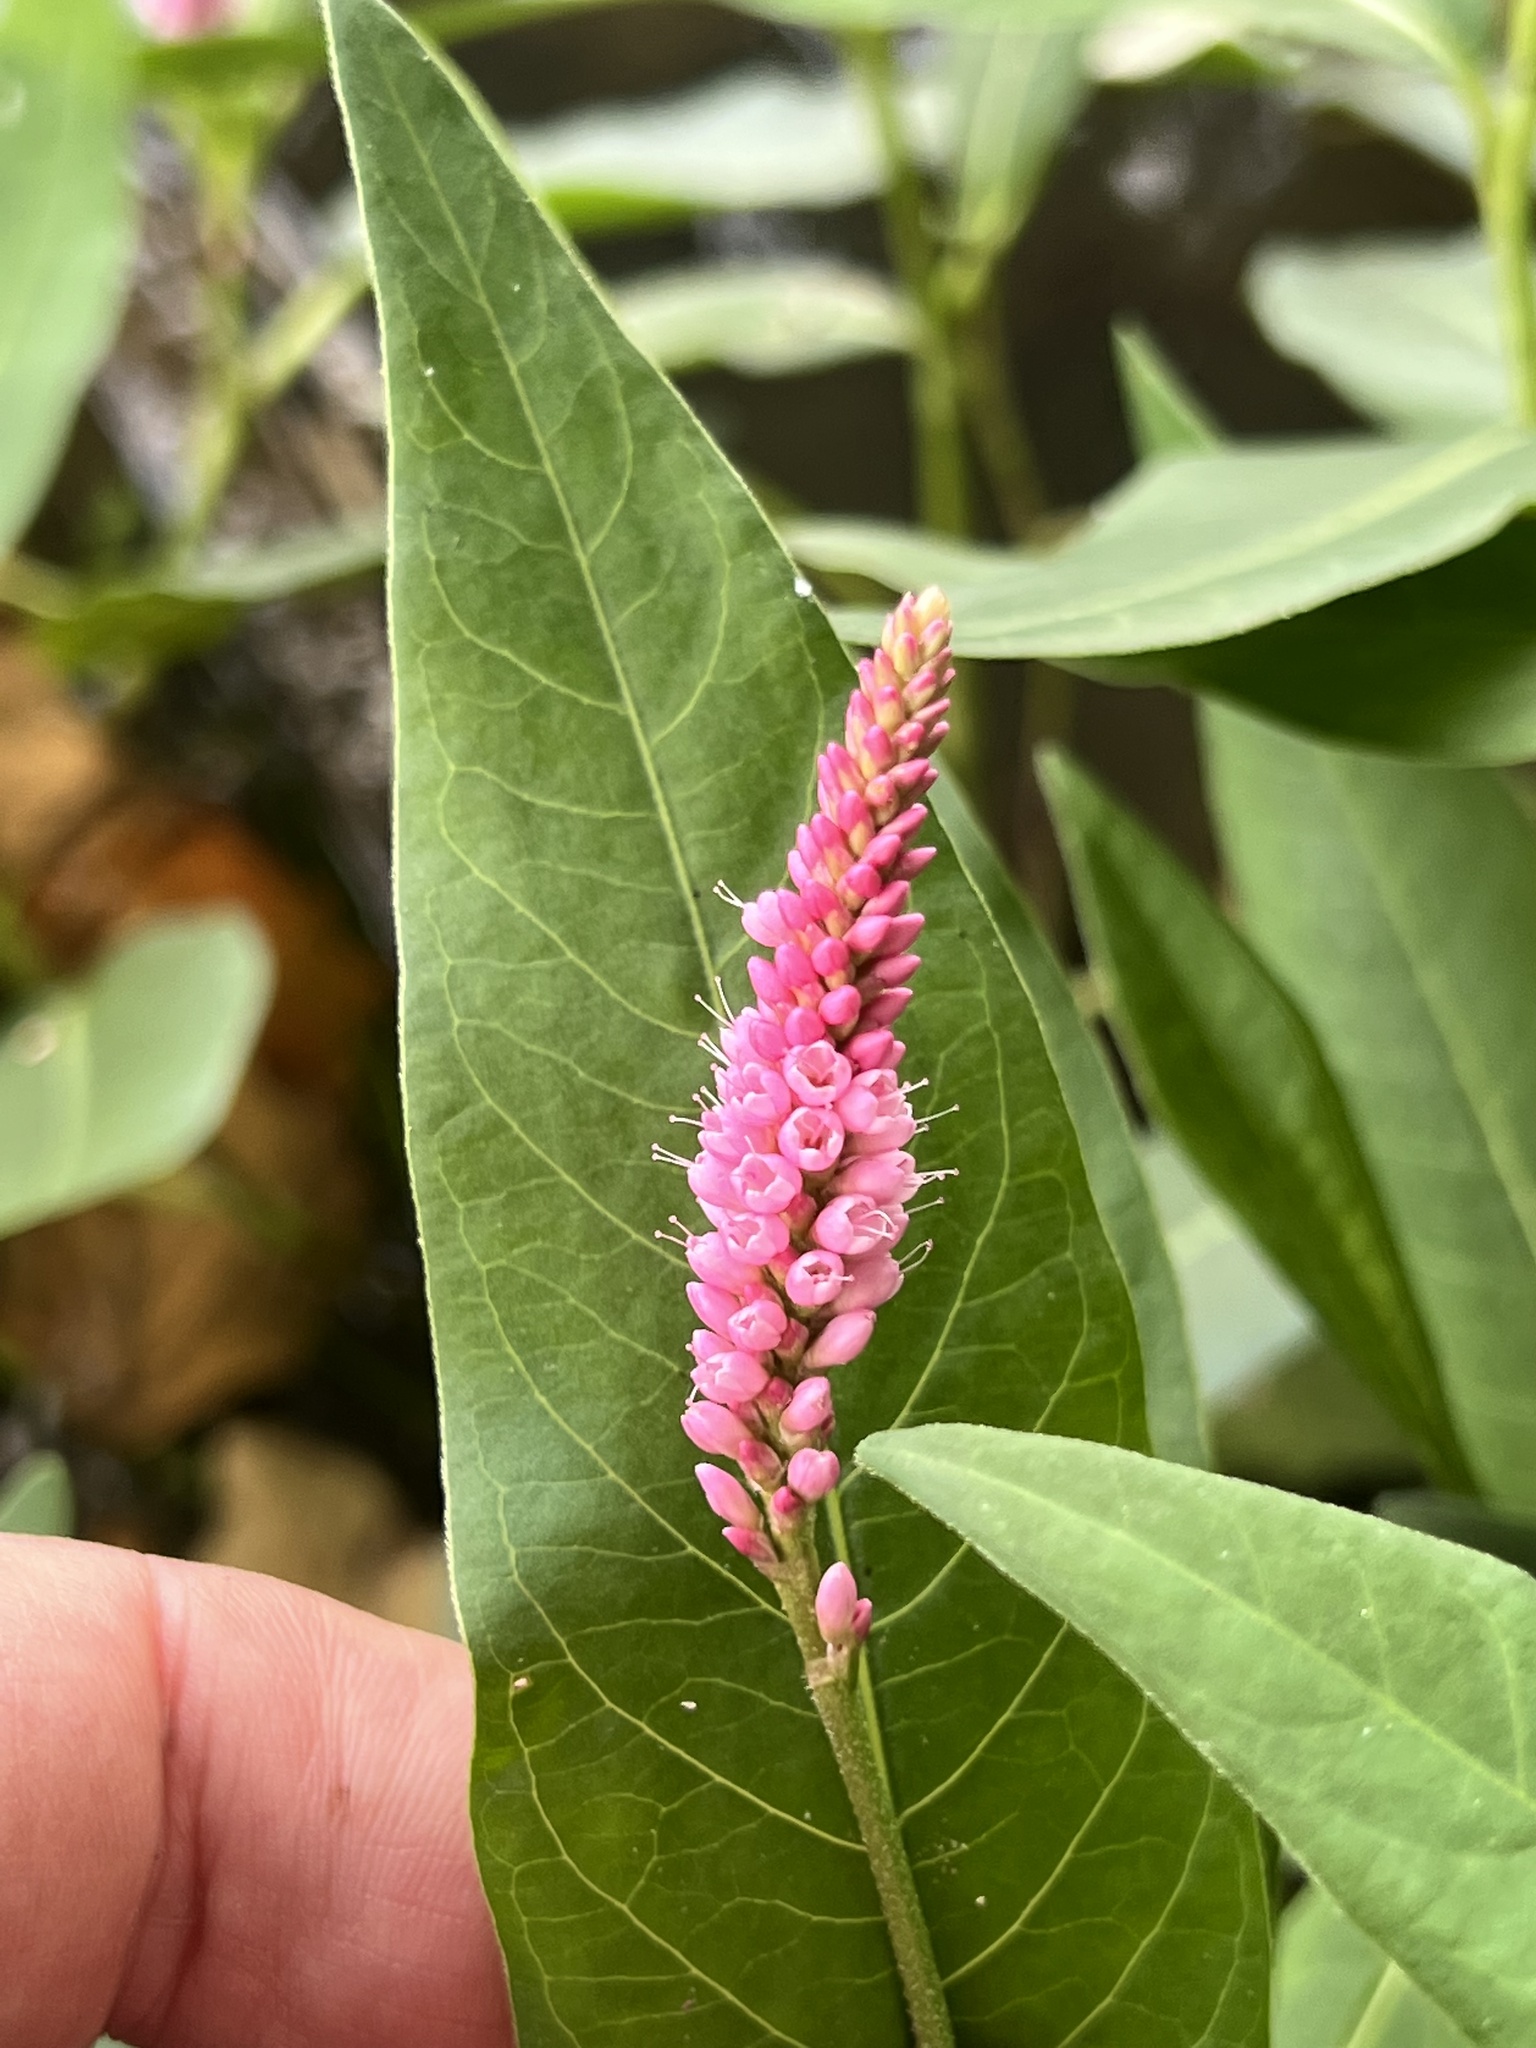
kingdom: Plantae
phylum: Tracheophyta
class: Magnoliopsida
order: Caryophyllales
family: Polygonaceae
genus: Persicaria
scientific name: Persicaria amphibia
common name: Amphibious bistort
